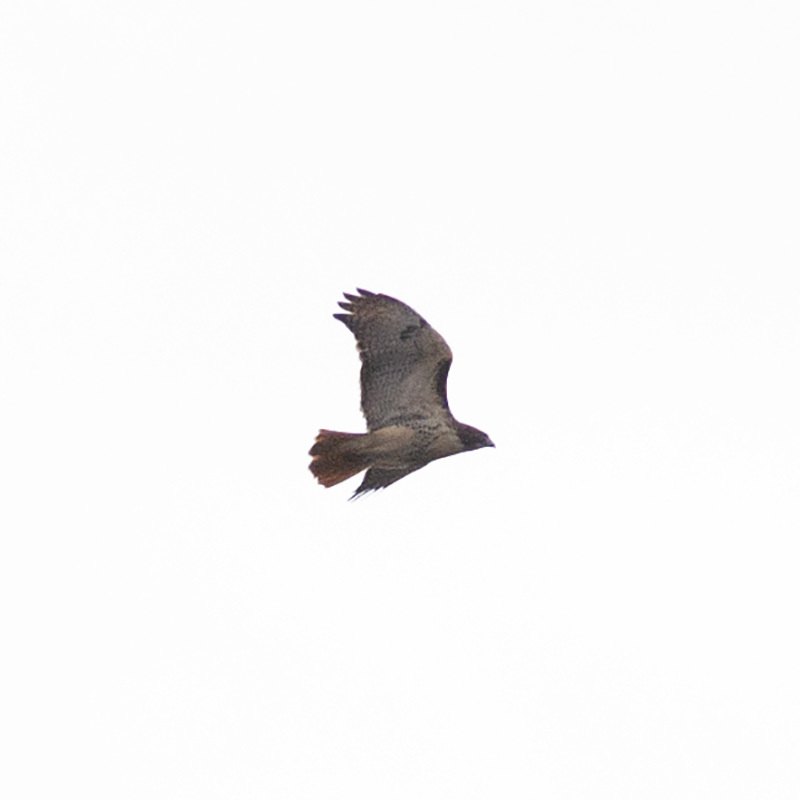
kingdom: Animalia
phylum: Chordata
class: Aves
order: Accipitriformes
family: Accipitridae
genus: Buteo
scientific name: Buteo jamaicensis
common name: Red-tailed hawk
